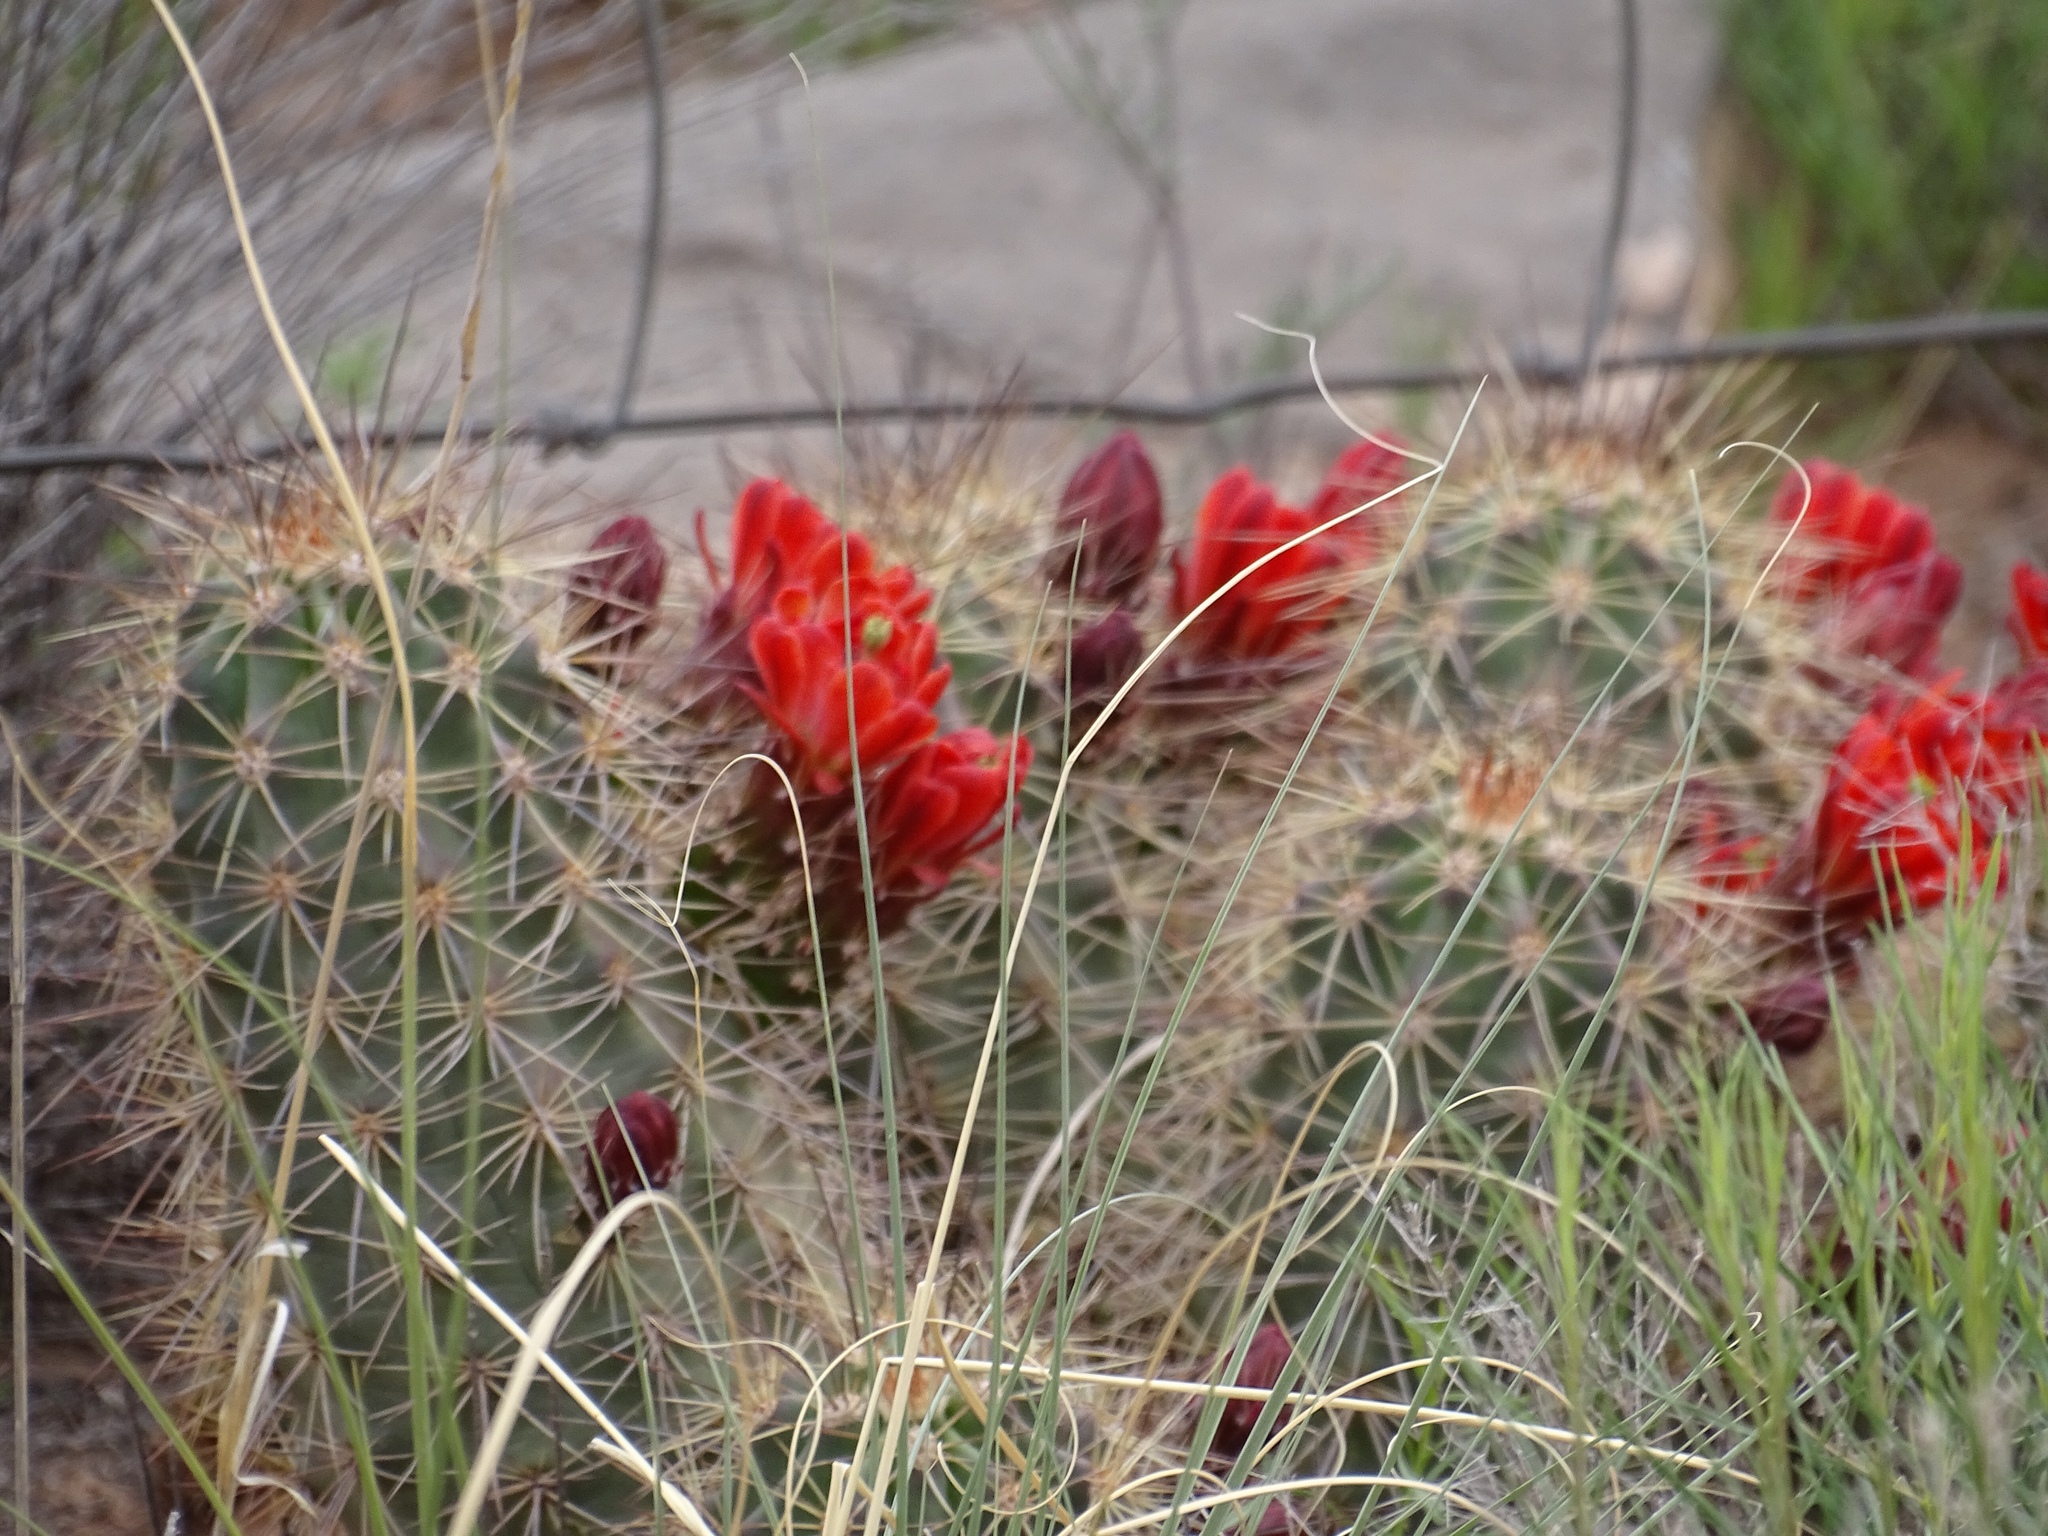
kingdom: Plantae
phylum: Tracheophyta
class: Magnoliopsida
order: Caryophyllales
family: Cactaceae
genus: Echinocereus
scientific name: Echinocereus coccineus
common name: Scarlet hedgehog cactus
